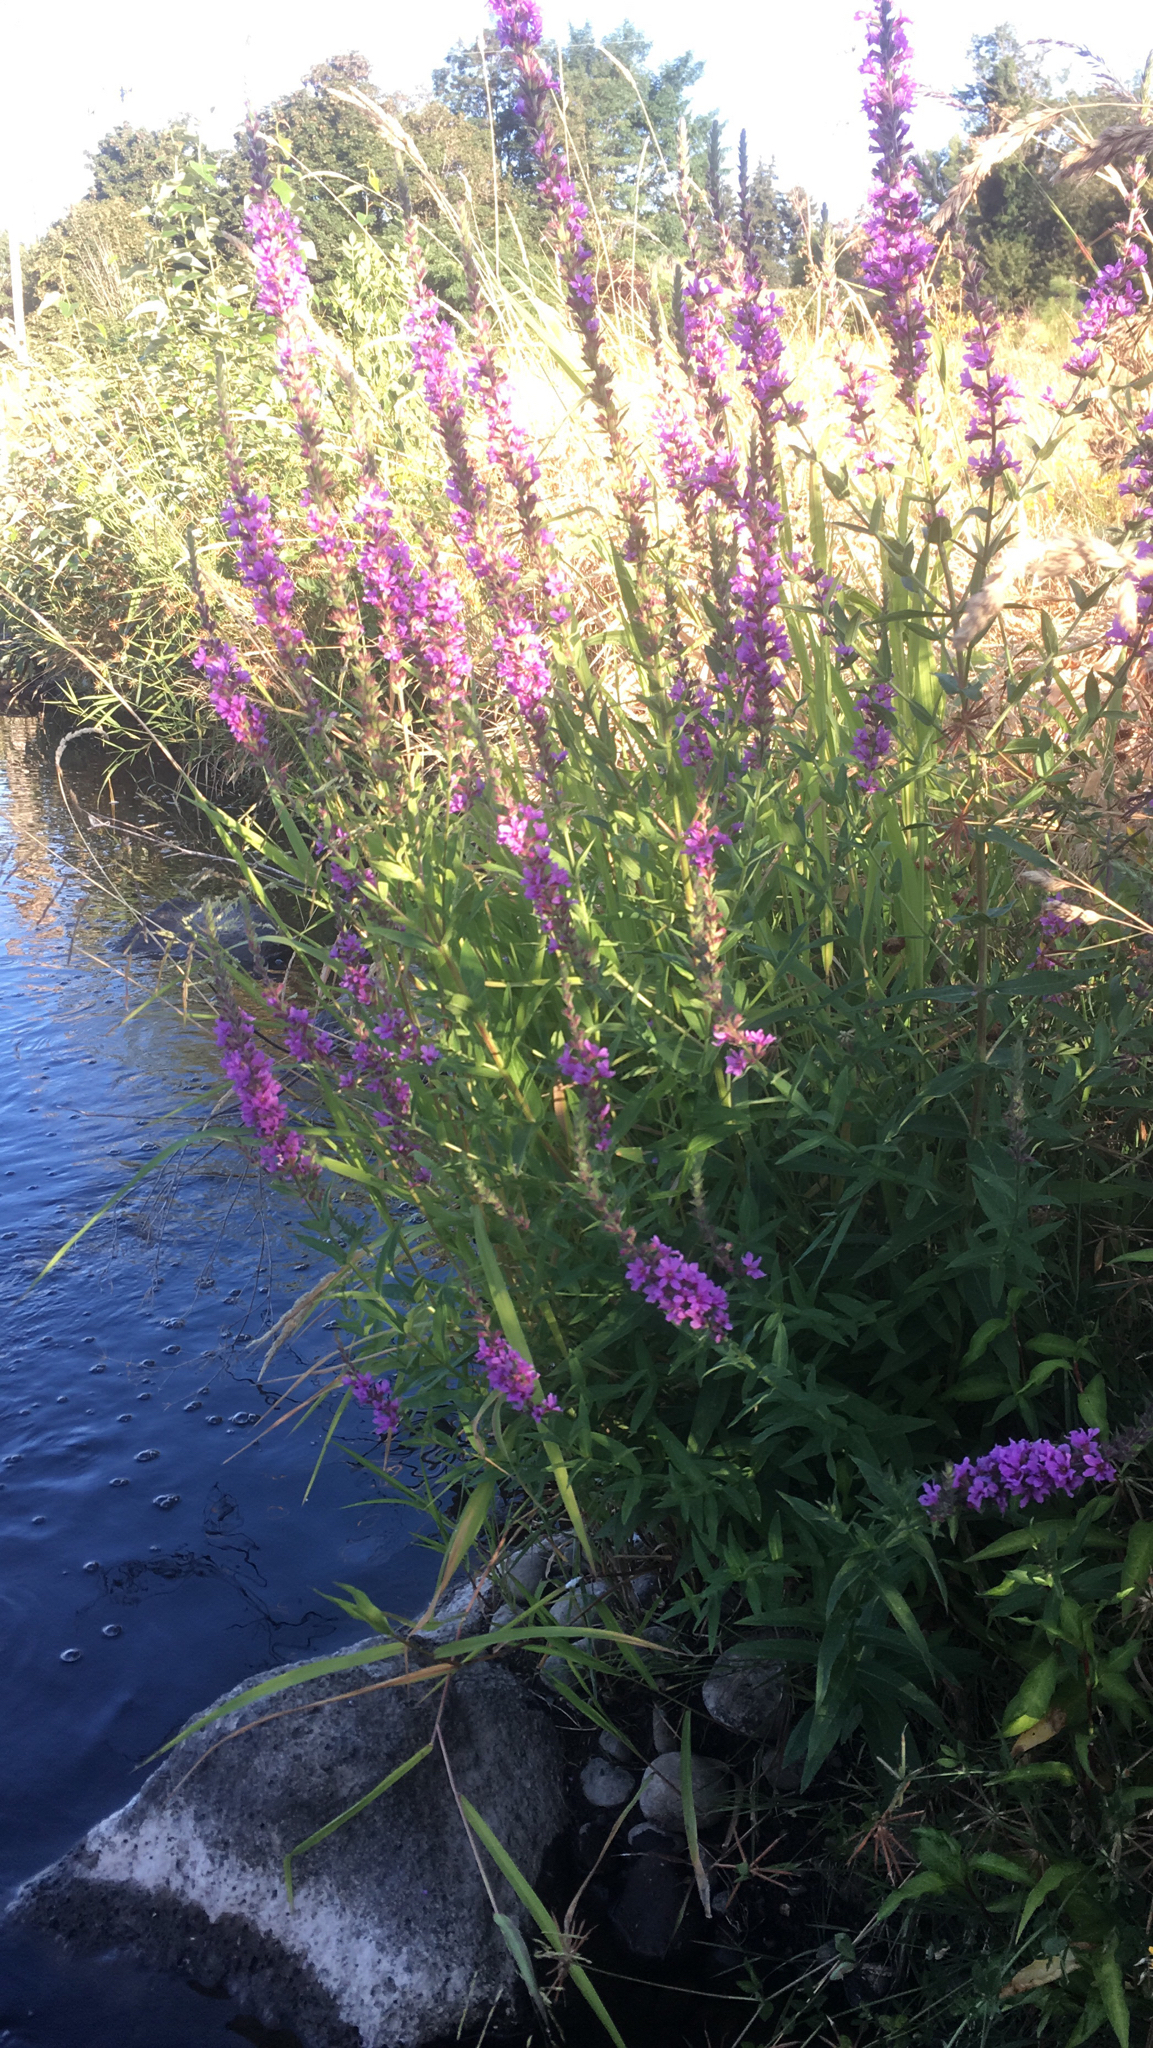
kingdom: Plantae
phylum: Tracheophyta
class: Magnoliopsida
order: Myrtales
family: Lythraceae
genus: Lythrum
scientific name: Lythrum salicaria
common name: Purple loosestrife
